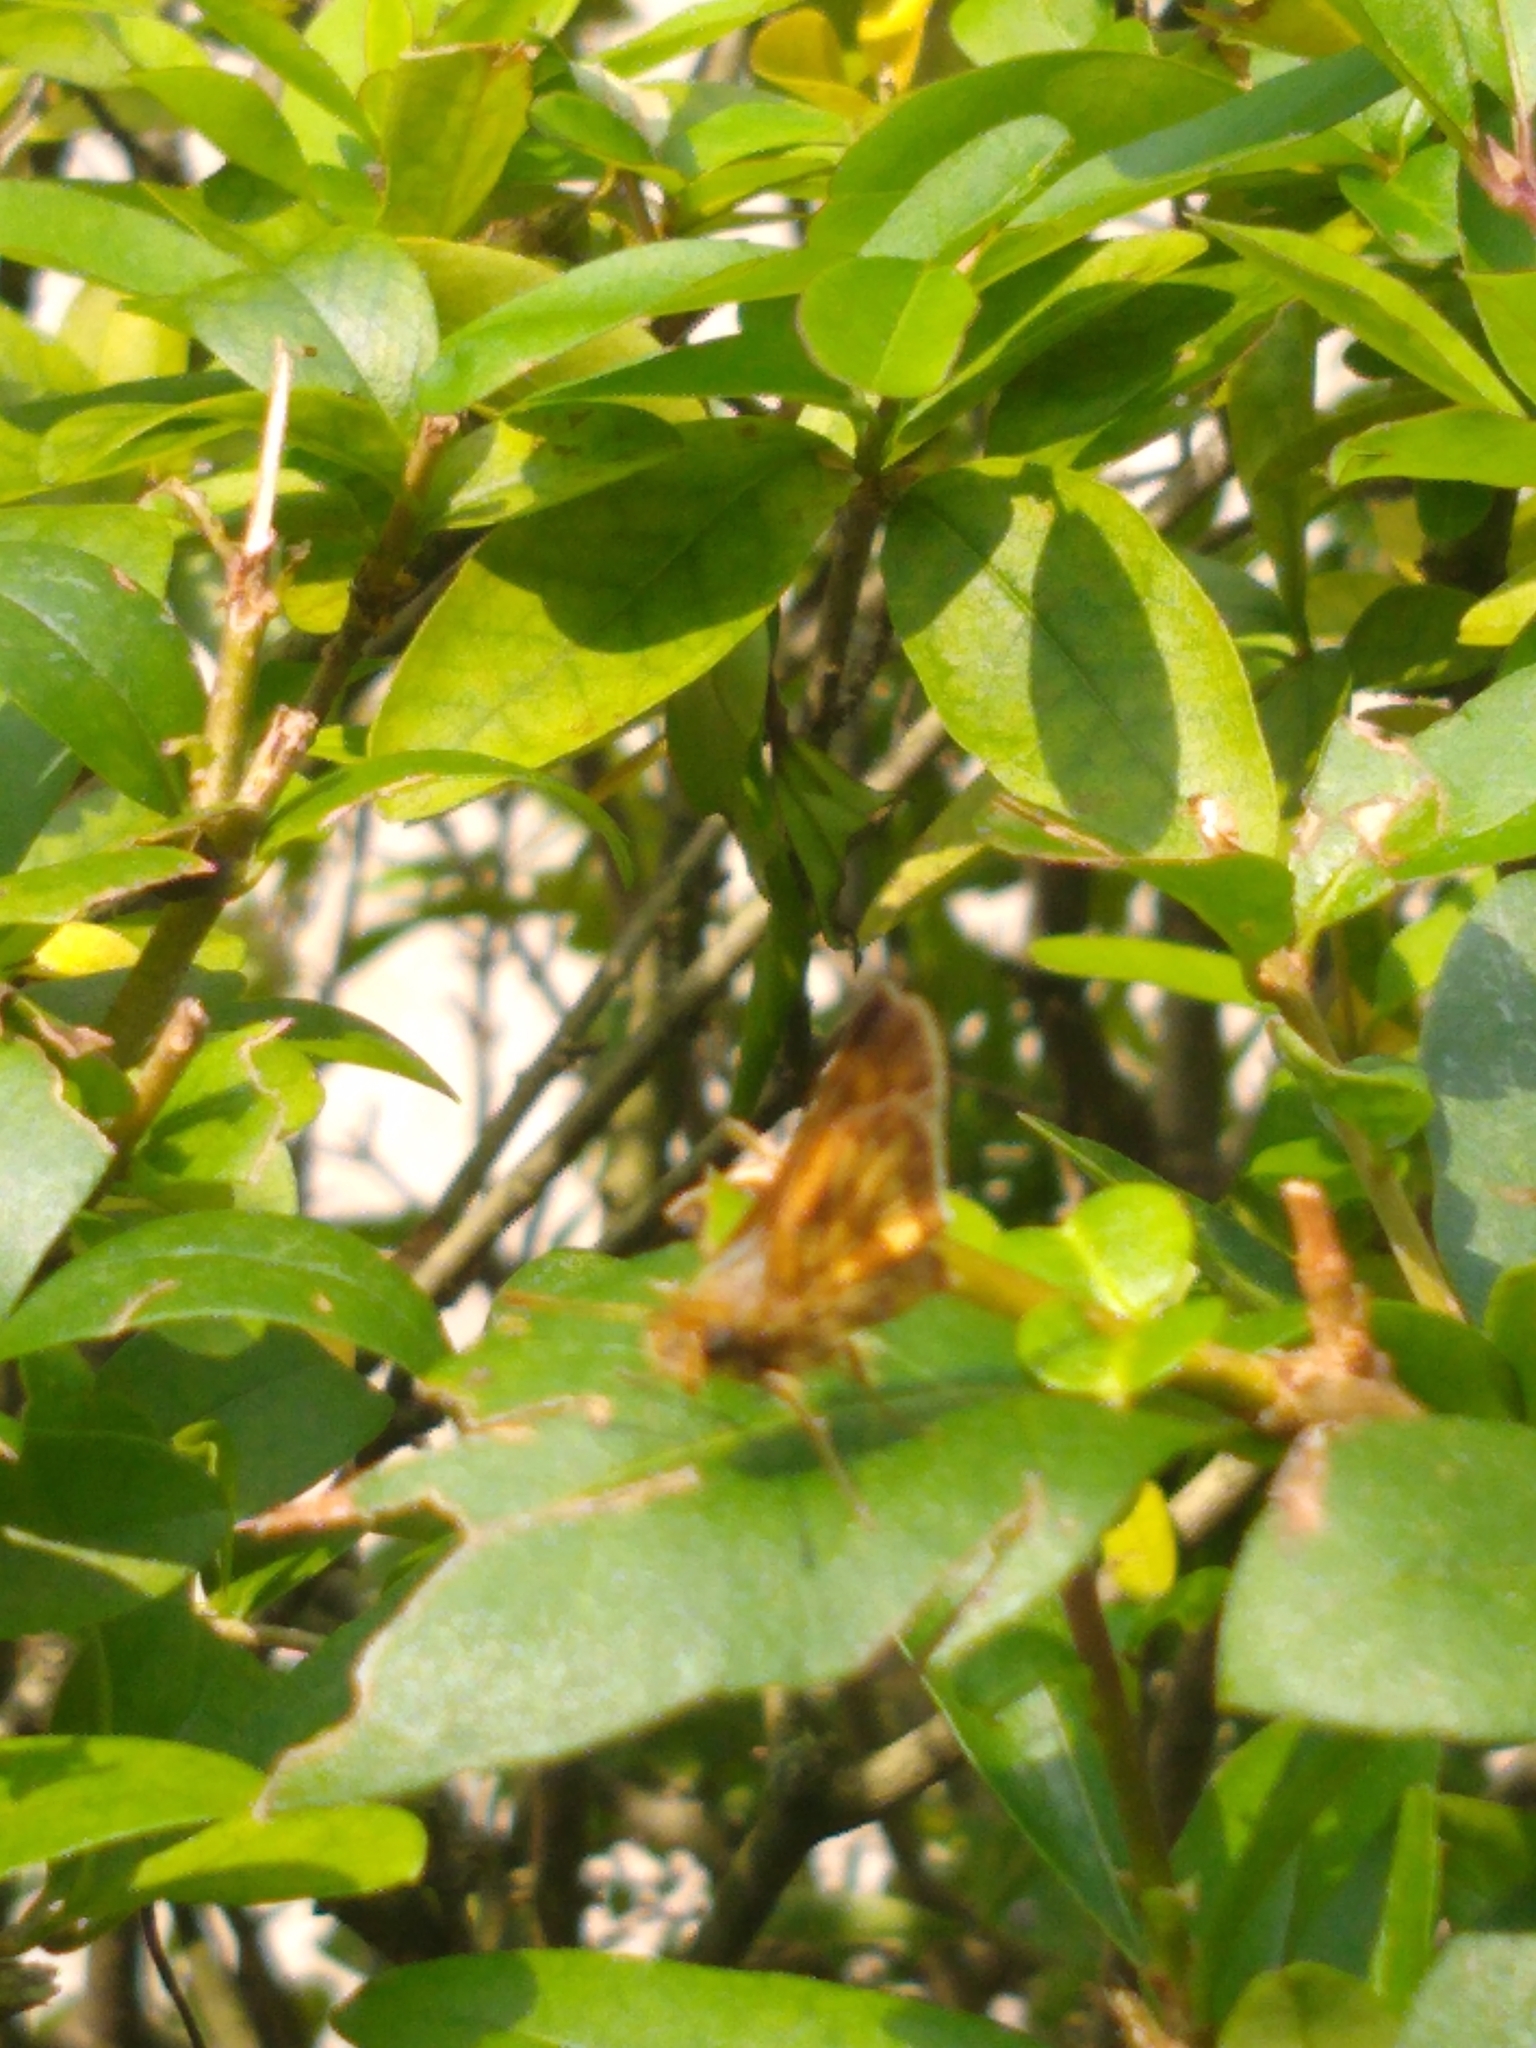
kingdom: Animalia
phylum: Arthropoda
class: Insecta
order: Lepidoptera
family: Hesperiidae
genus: Polites
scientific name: Polites coras
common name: Peck's skipper
